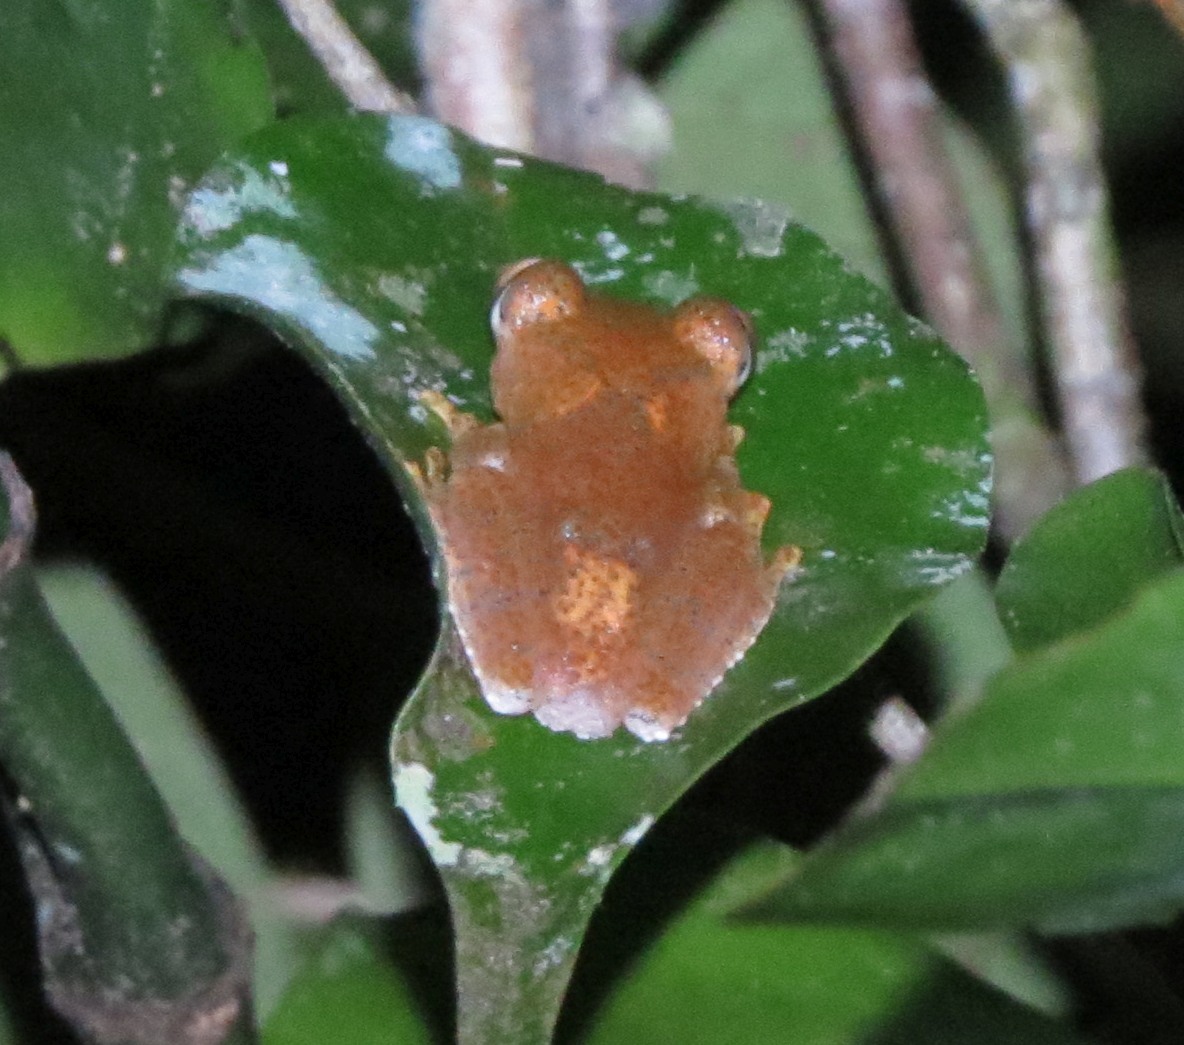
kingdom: Animalia
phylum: Chordata
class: Amphibia
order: Anura
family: Mantellidae
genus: Boophis
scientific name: Boophis pyrrhus
